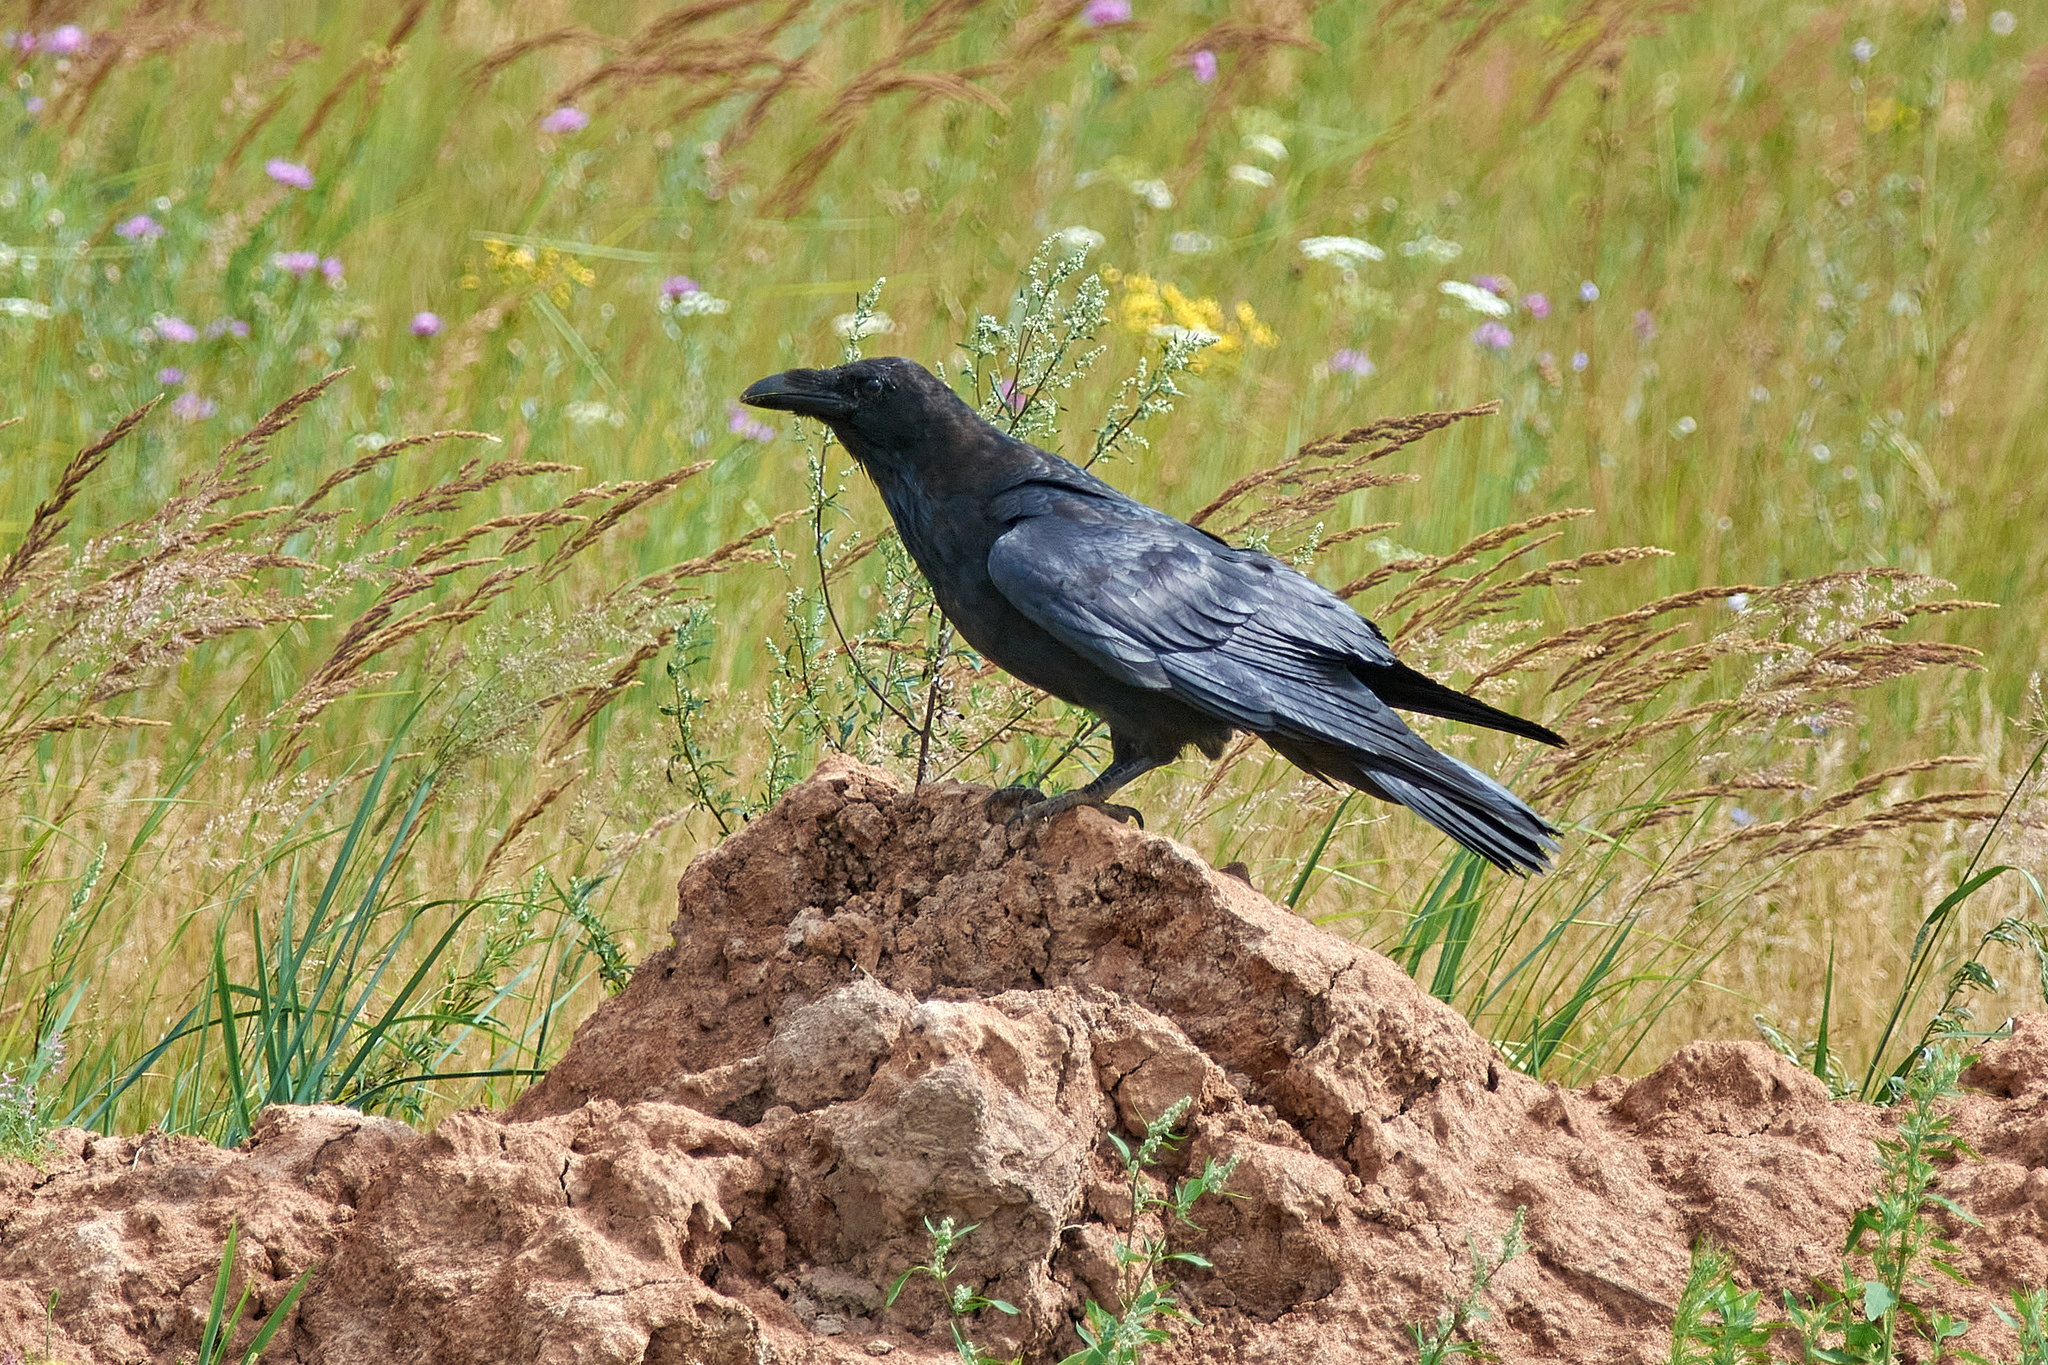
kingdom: Animalia
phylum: Chordata
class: Aves
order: Passeriformes
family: Corvidae
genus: Corvus
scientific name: Corvus corax
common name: Common raven
